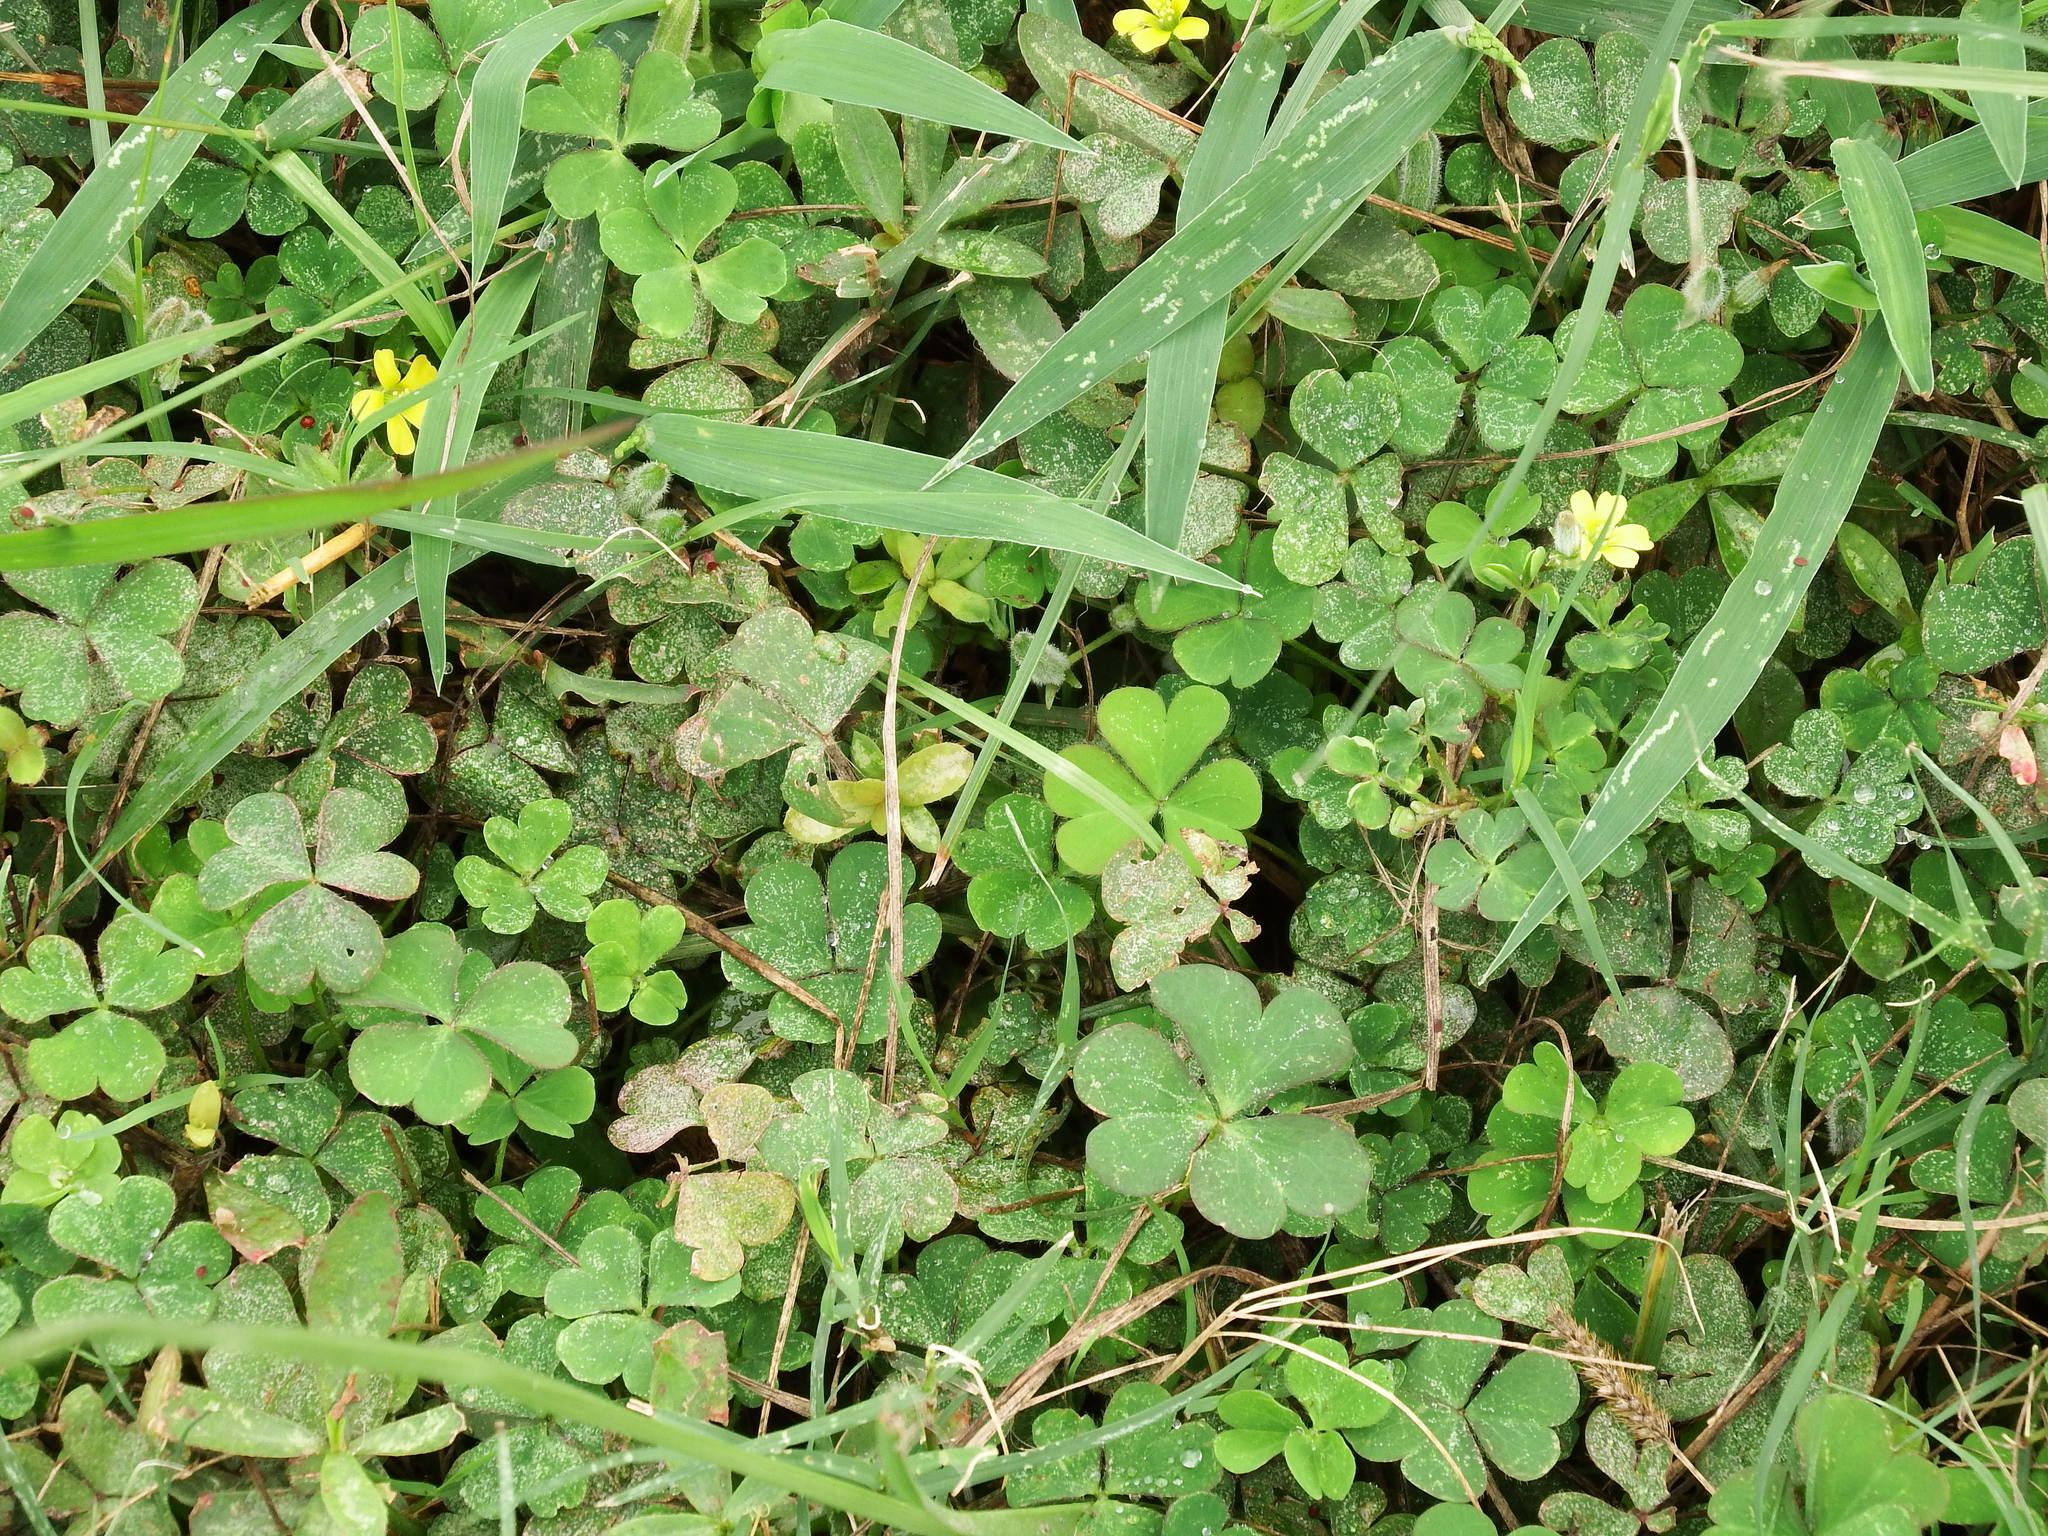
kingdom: Plantae
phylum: Tracheophyta
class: Magnoliopsida
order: Oxalidales
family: Oxalidaceae
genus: Oxalis
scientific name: Oxalis corniculata
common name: Procumbent yellow-sorrel
